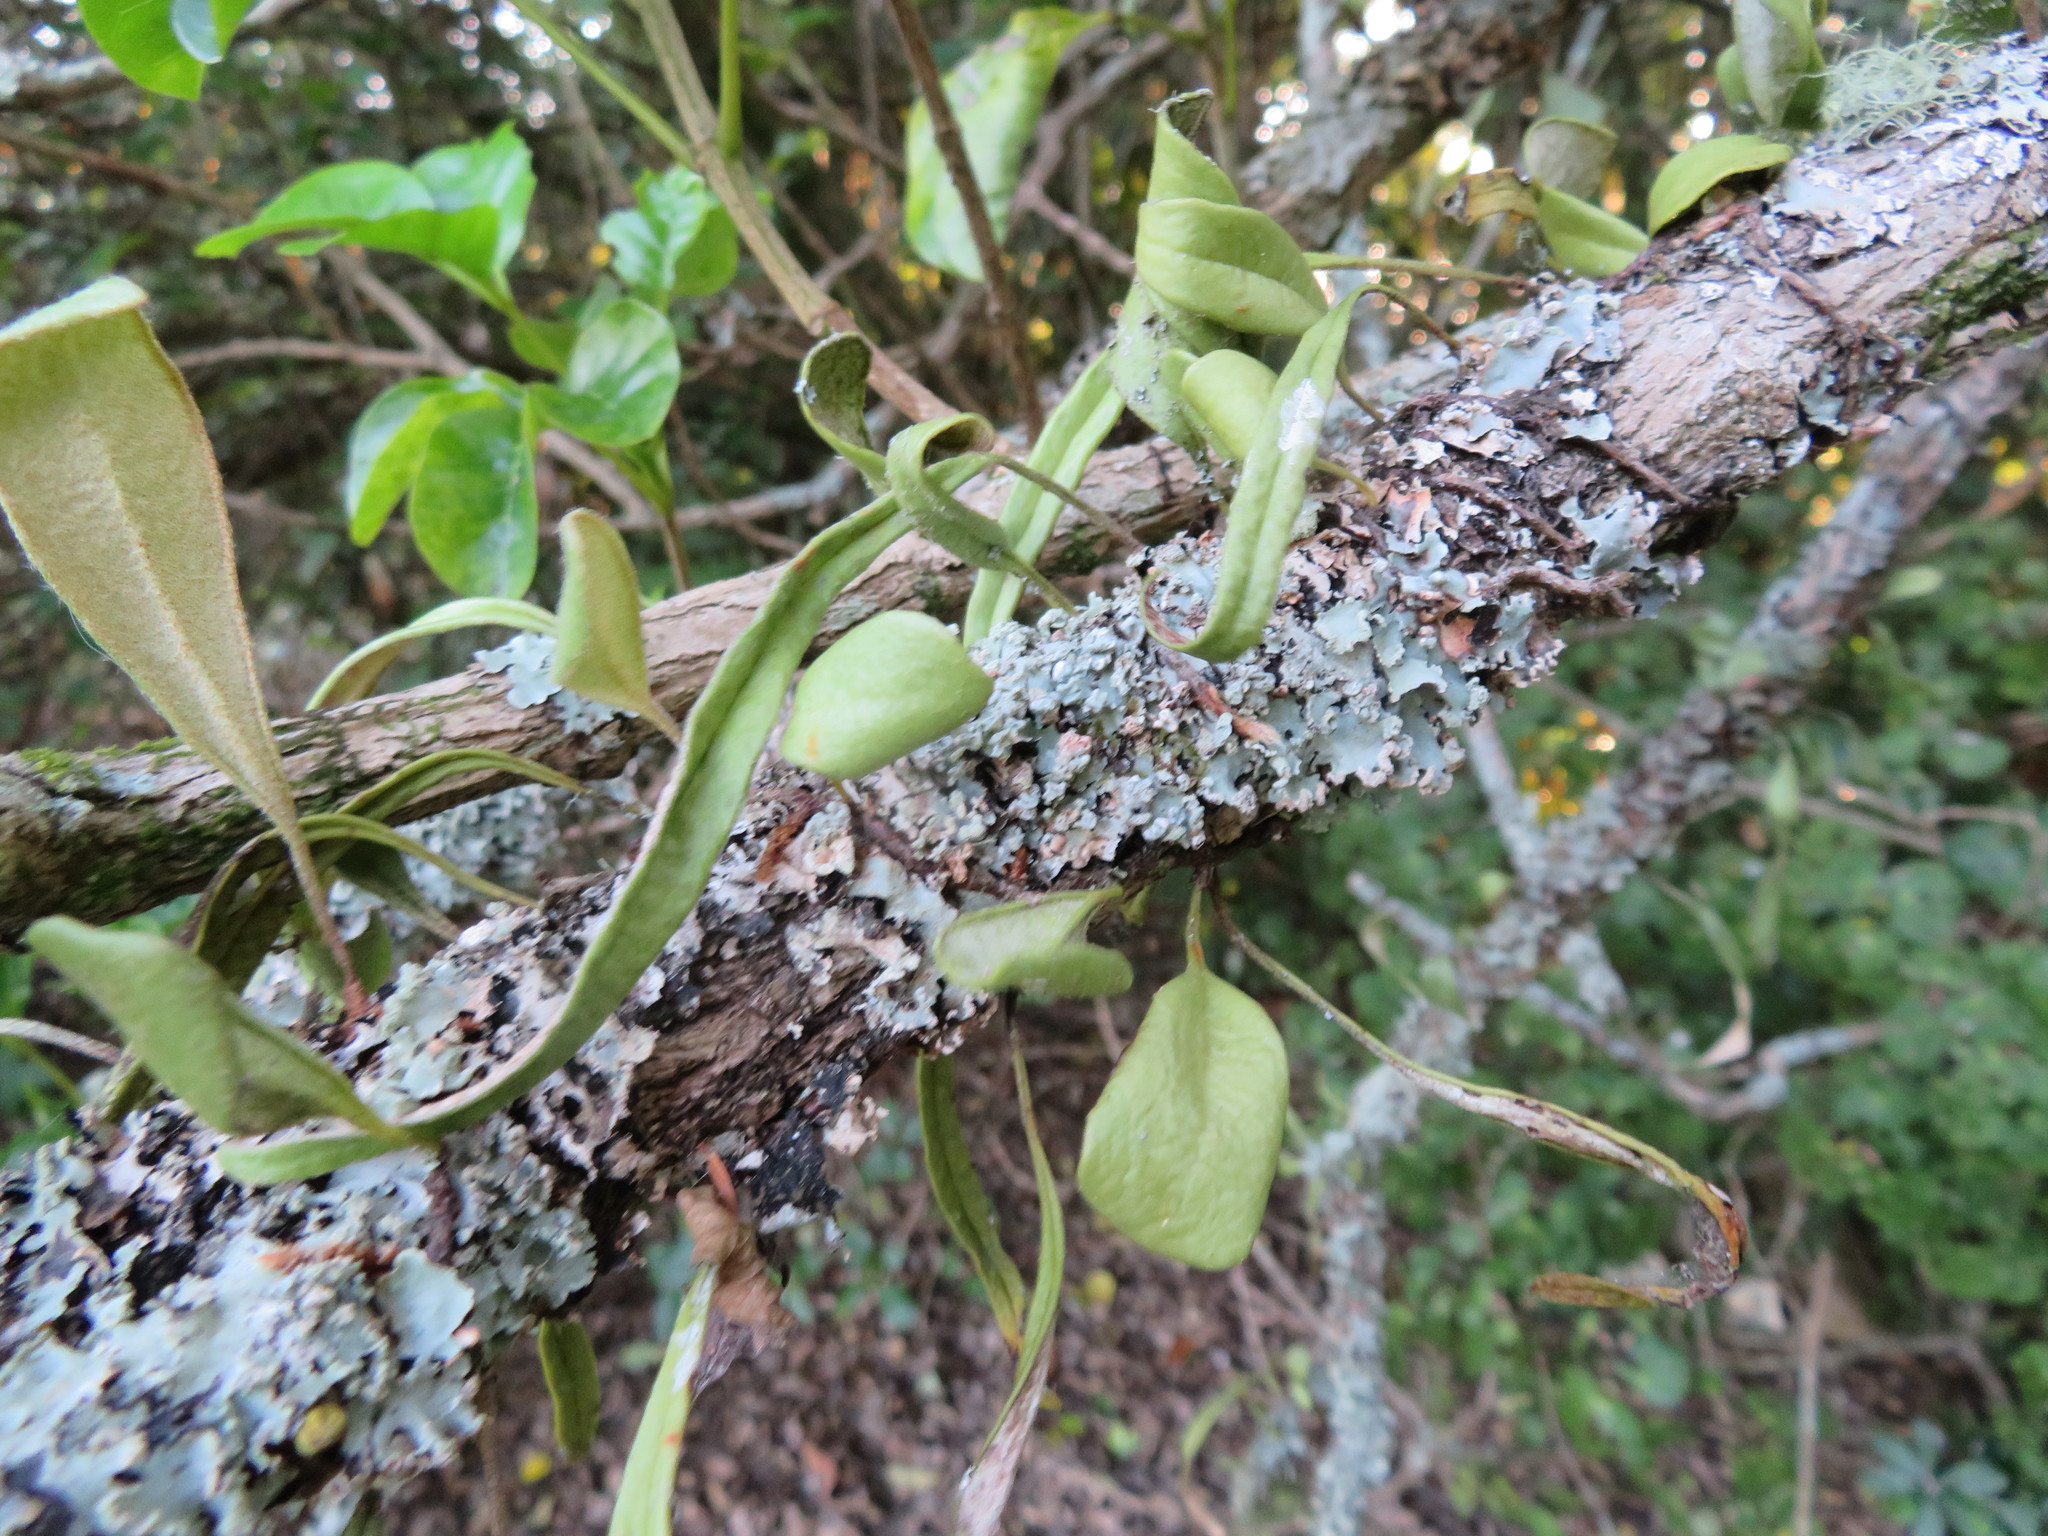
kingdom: Plantae
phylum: Tracheophyta
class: Polypodiopsida
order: Polypodiales
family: Polypodiaceae
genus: Pyrrosia
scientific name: Pyrrosia eleagnifolia
